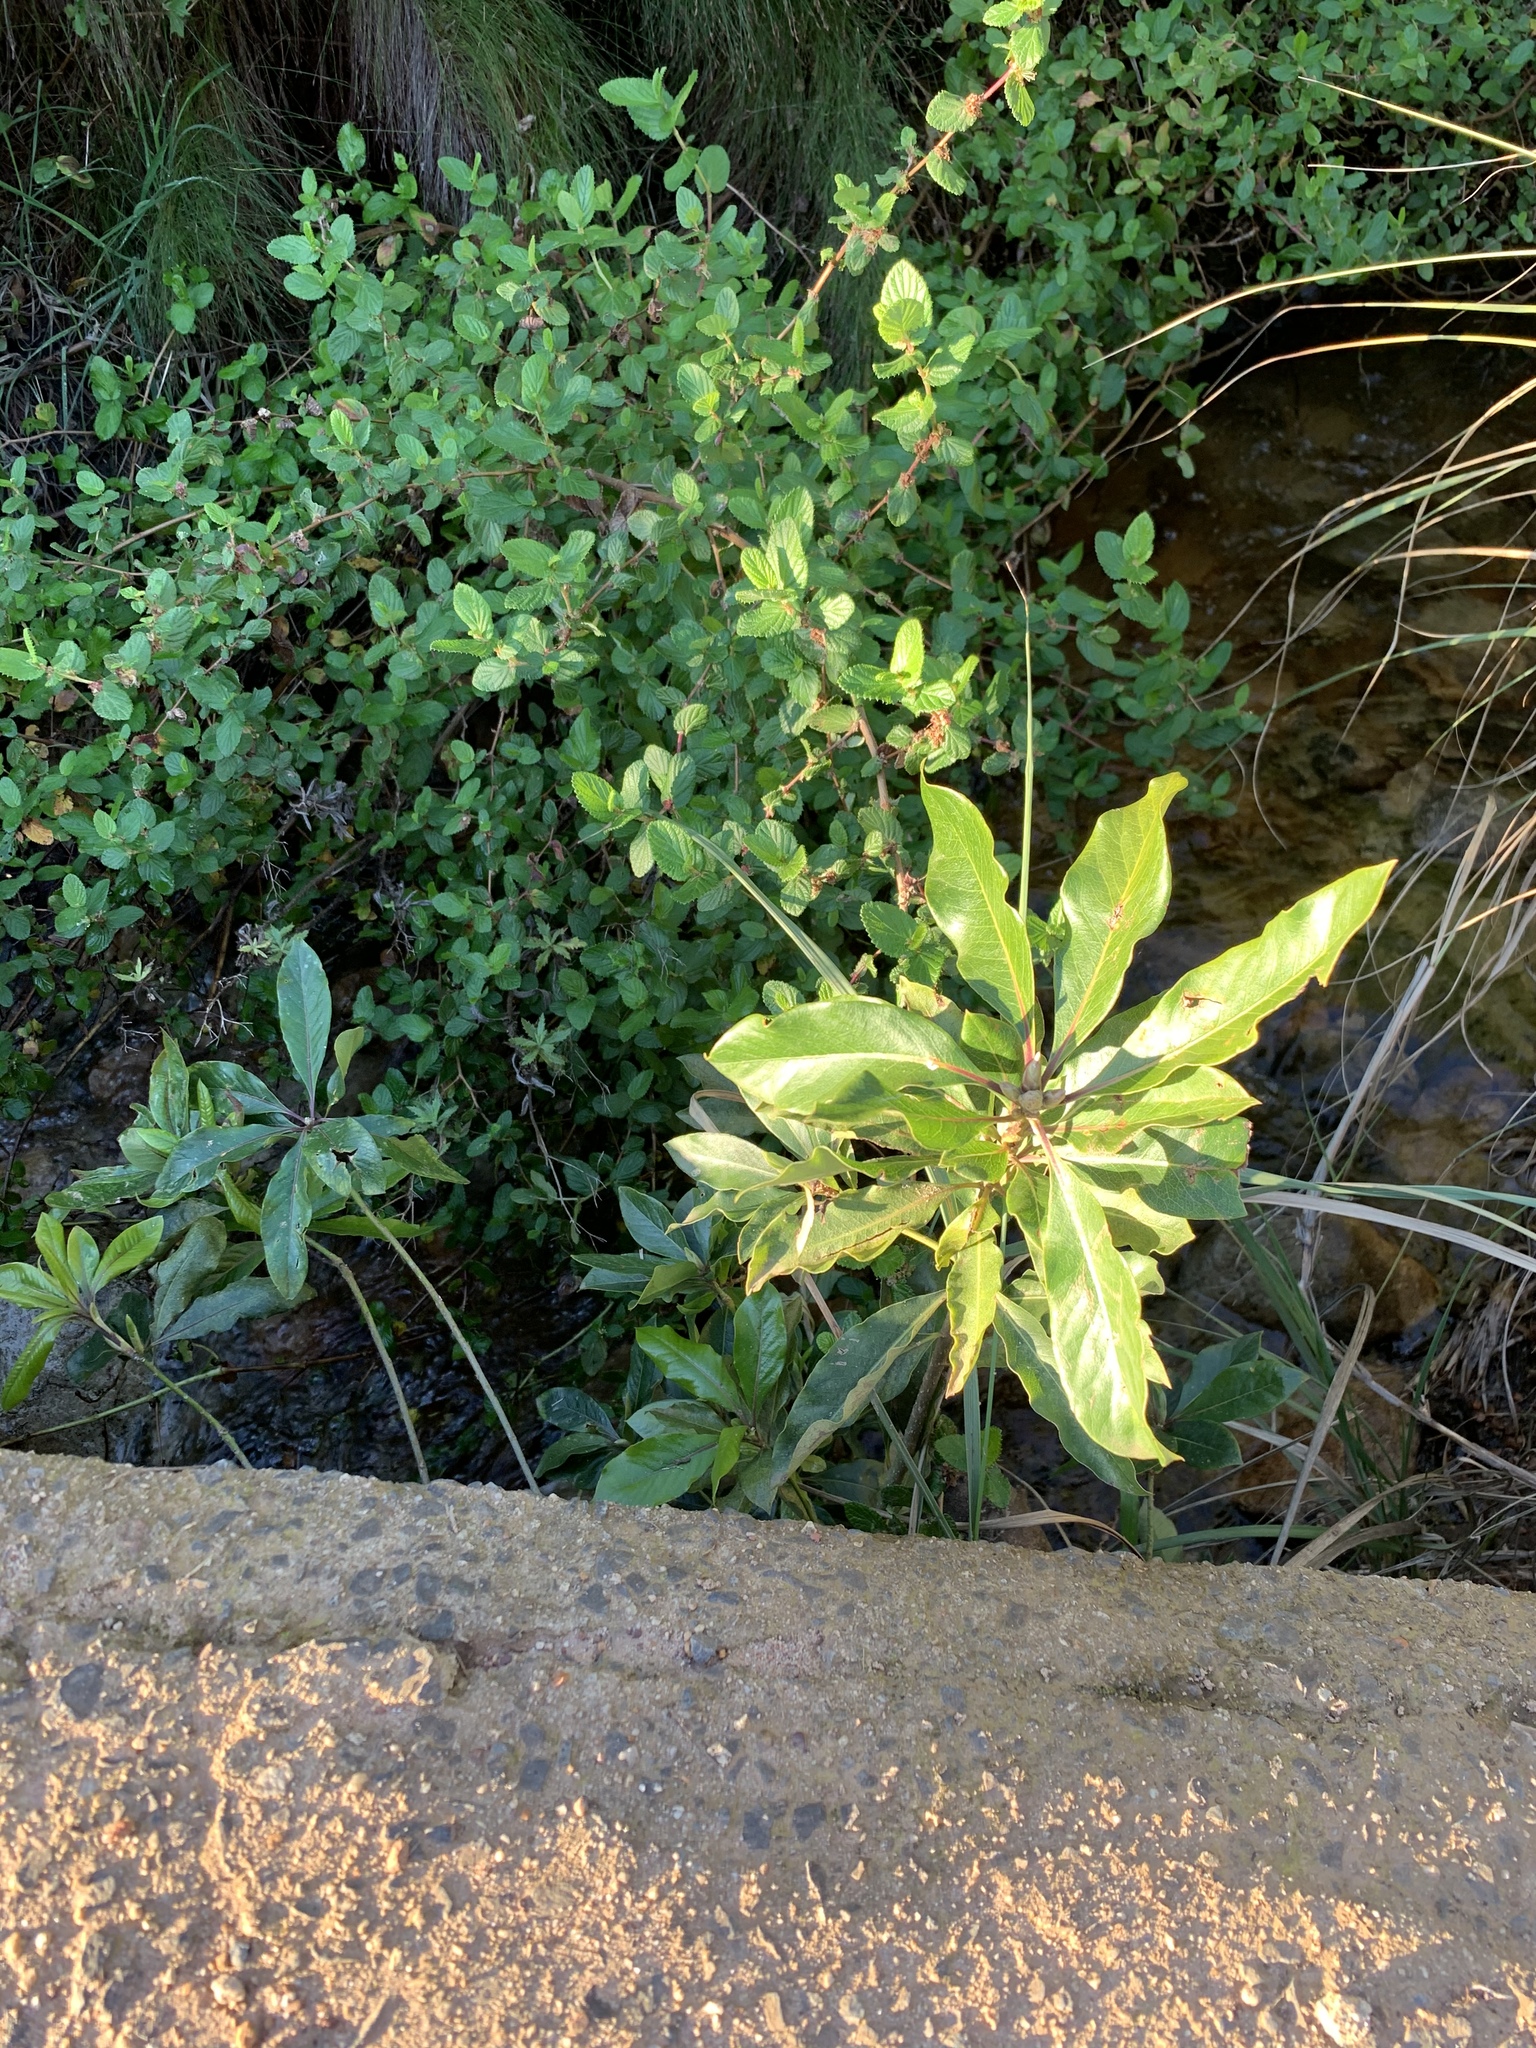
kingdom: Plantae
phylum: Tracheophyta
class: Magnoliopsida
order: Apiales
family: Pittosporaceae
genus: Pittosporum
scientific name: Pittosporum undulatum
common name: Australian cheesewood
